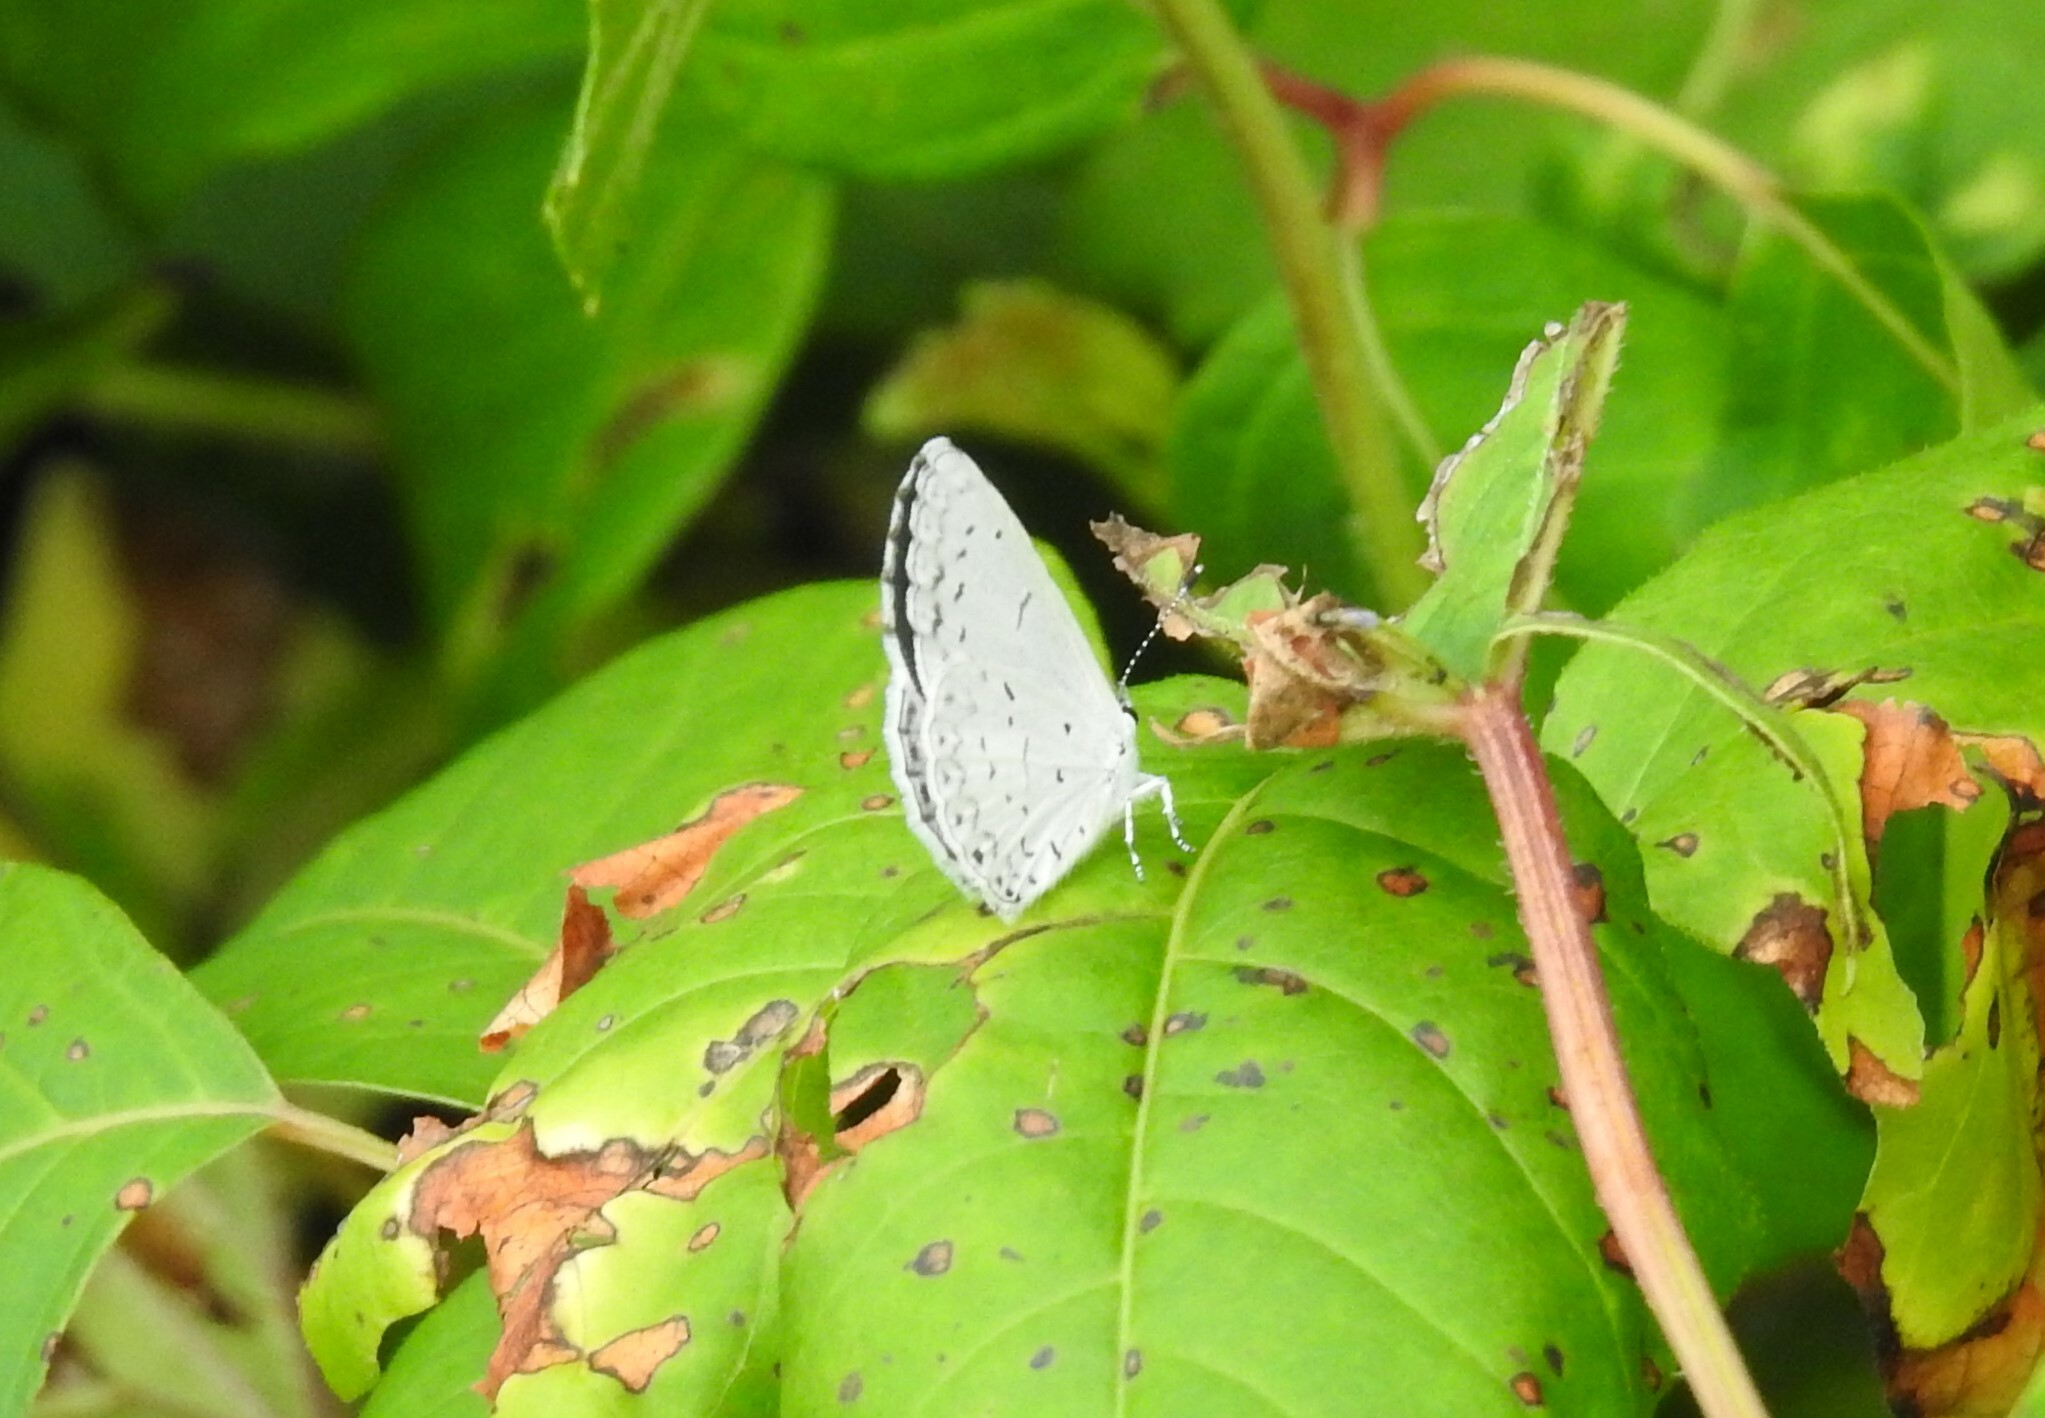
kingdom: Animalia
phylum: Arthropoda
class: Insecta
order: Lepidoptera
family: Lycaenidae
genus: Cyaniris
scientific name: Cyaniris neglecta
